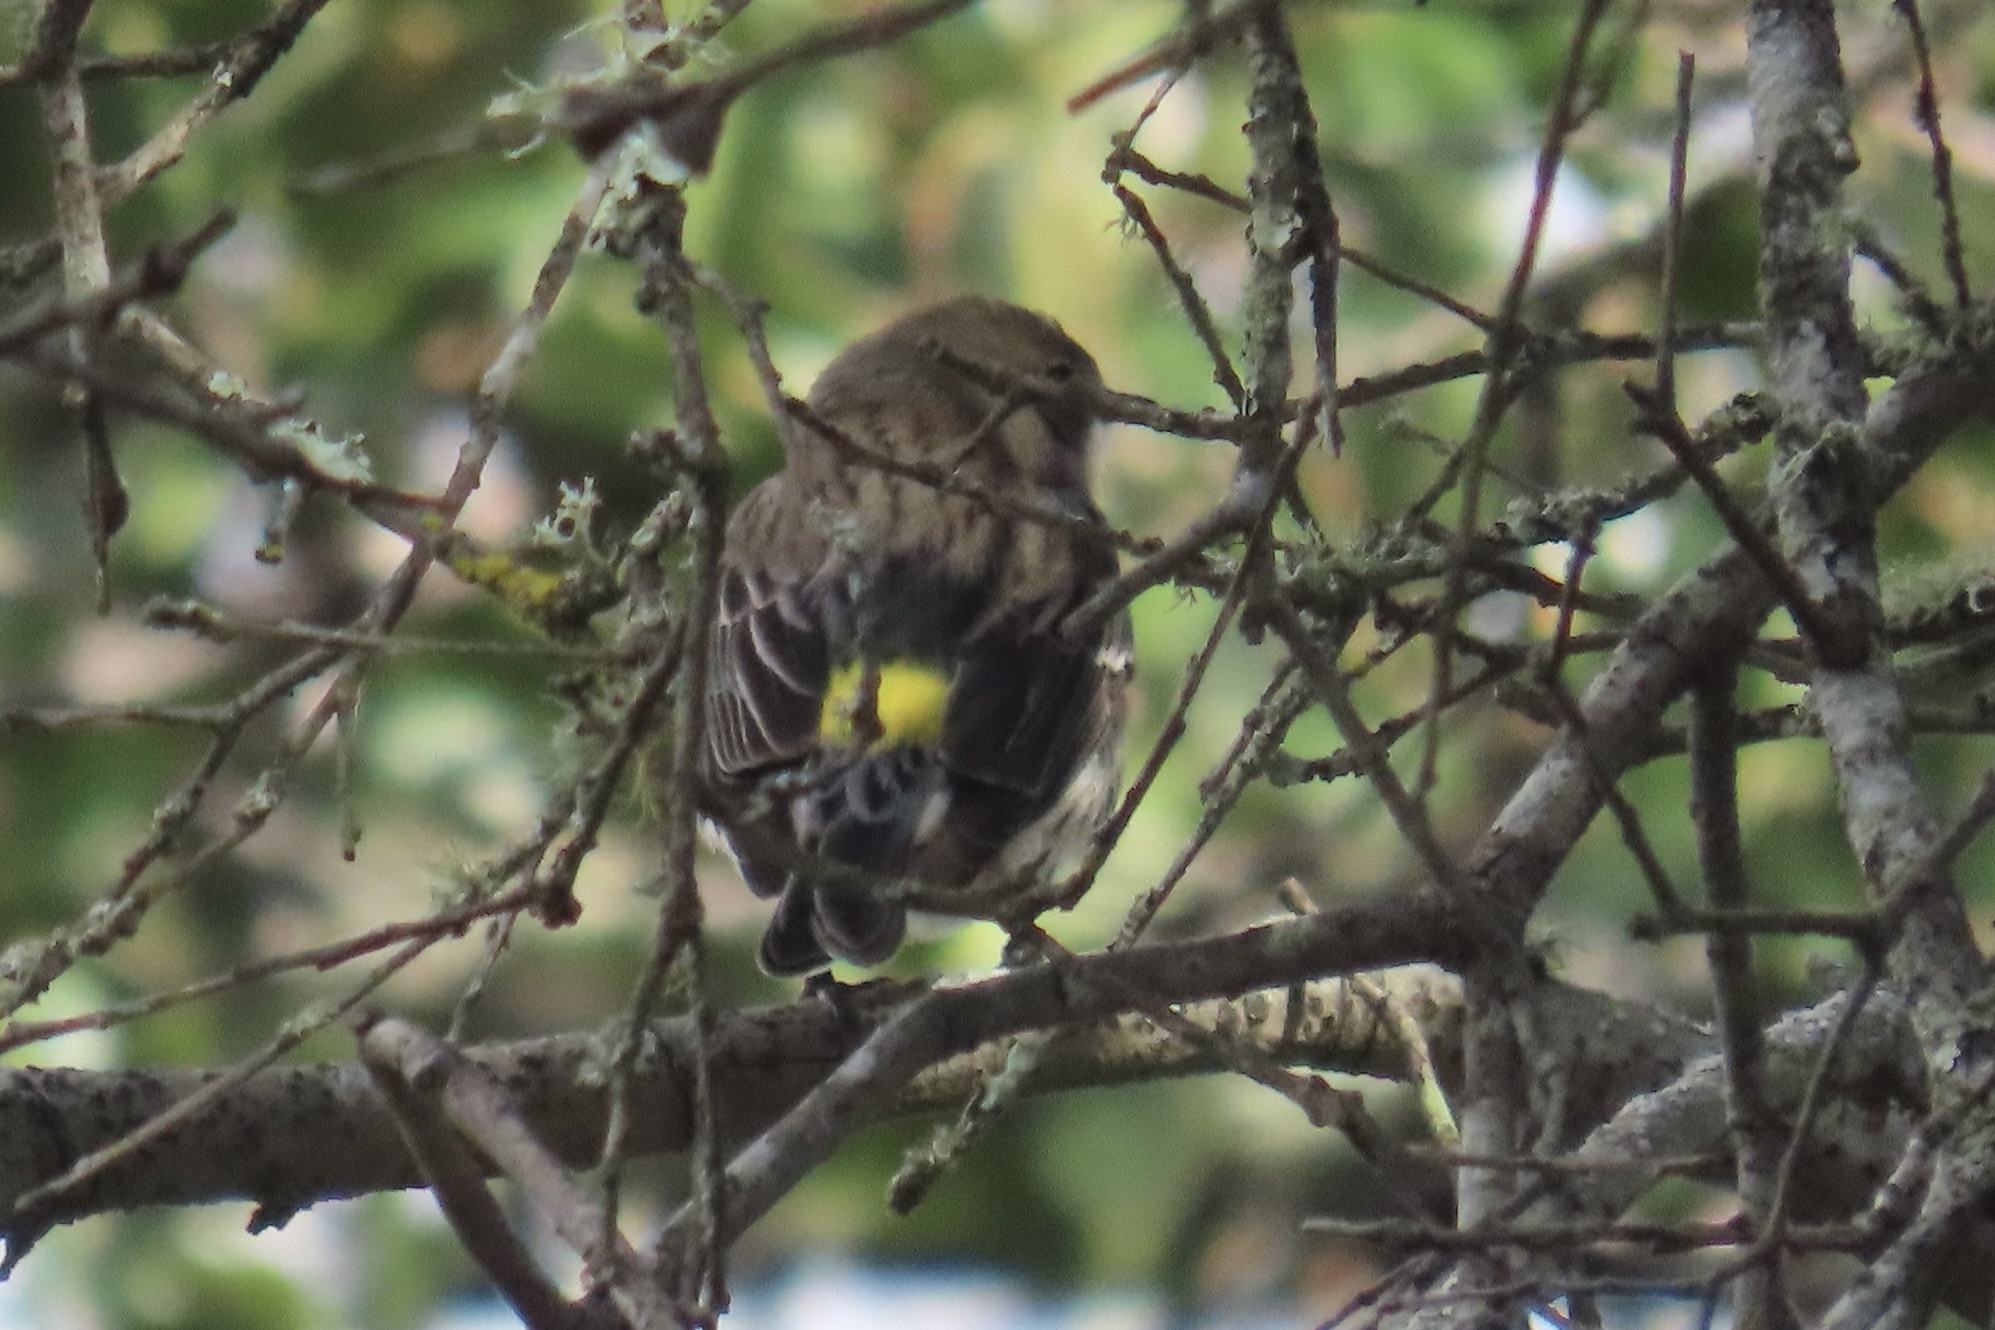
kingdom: Animalia
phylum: Chordata
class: Aves
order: Passeriformes
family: Parulidae
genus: Setophaga
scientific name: Setophaga coronata
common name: Myrtle warbler
